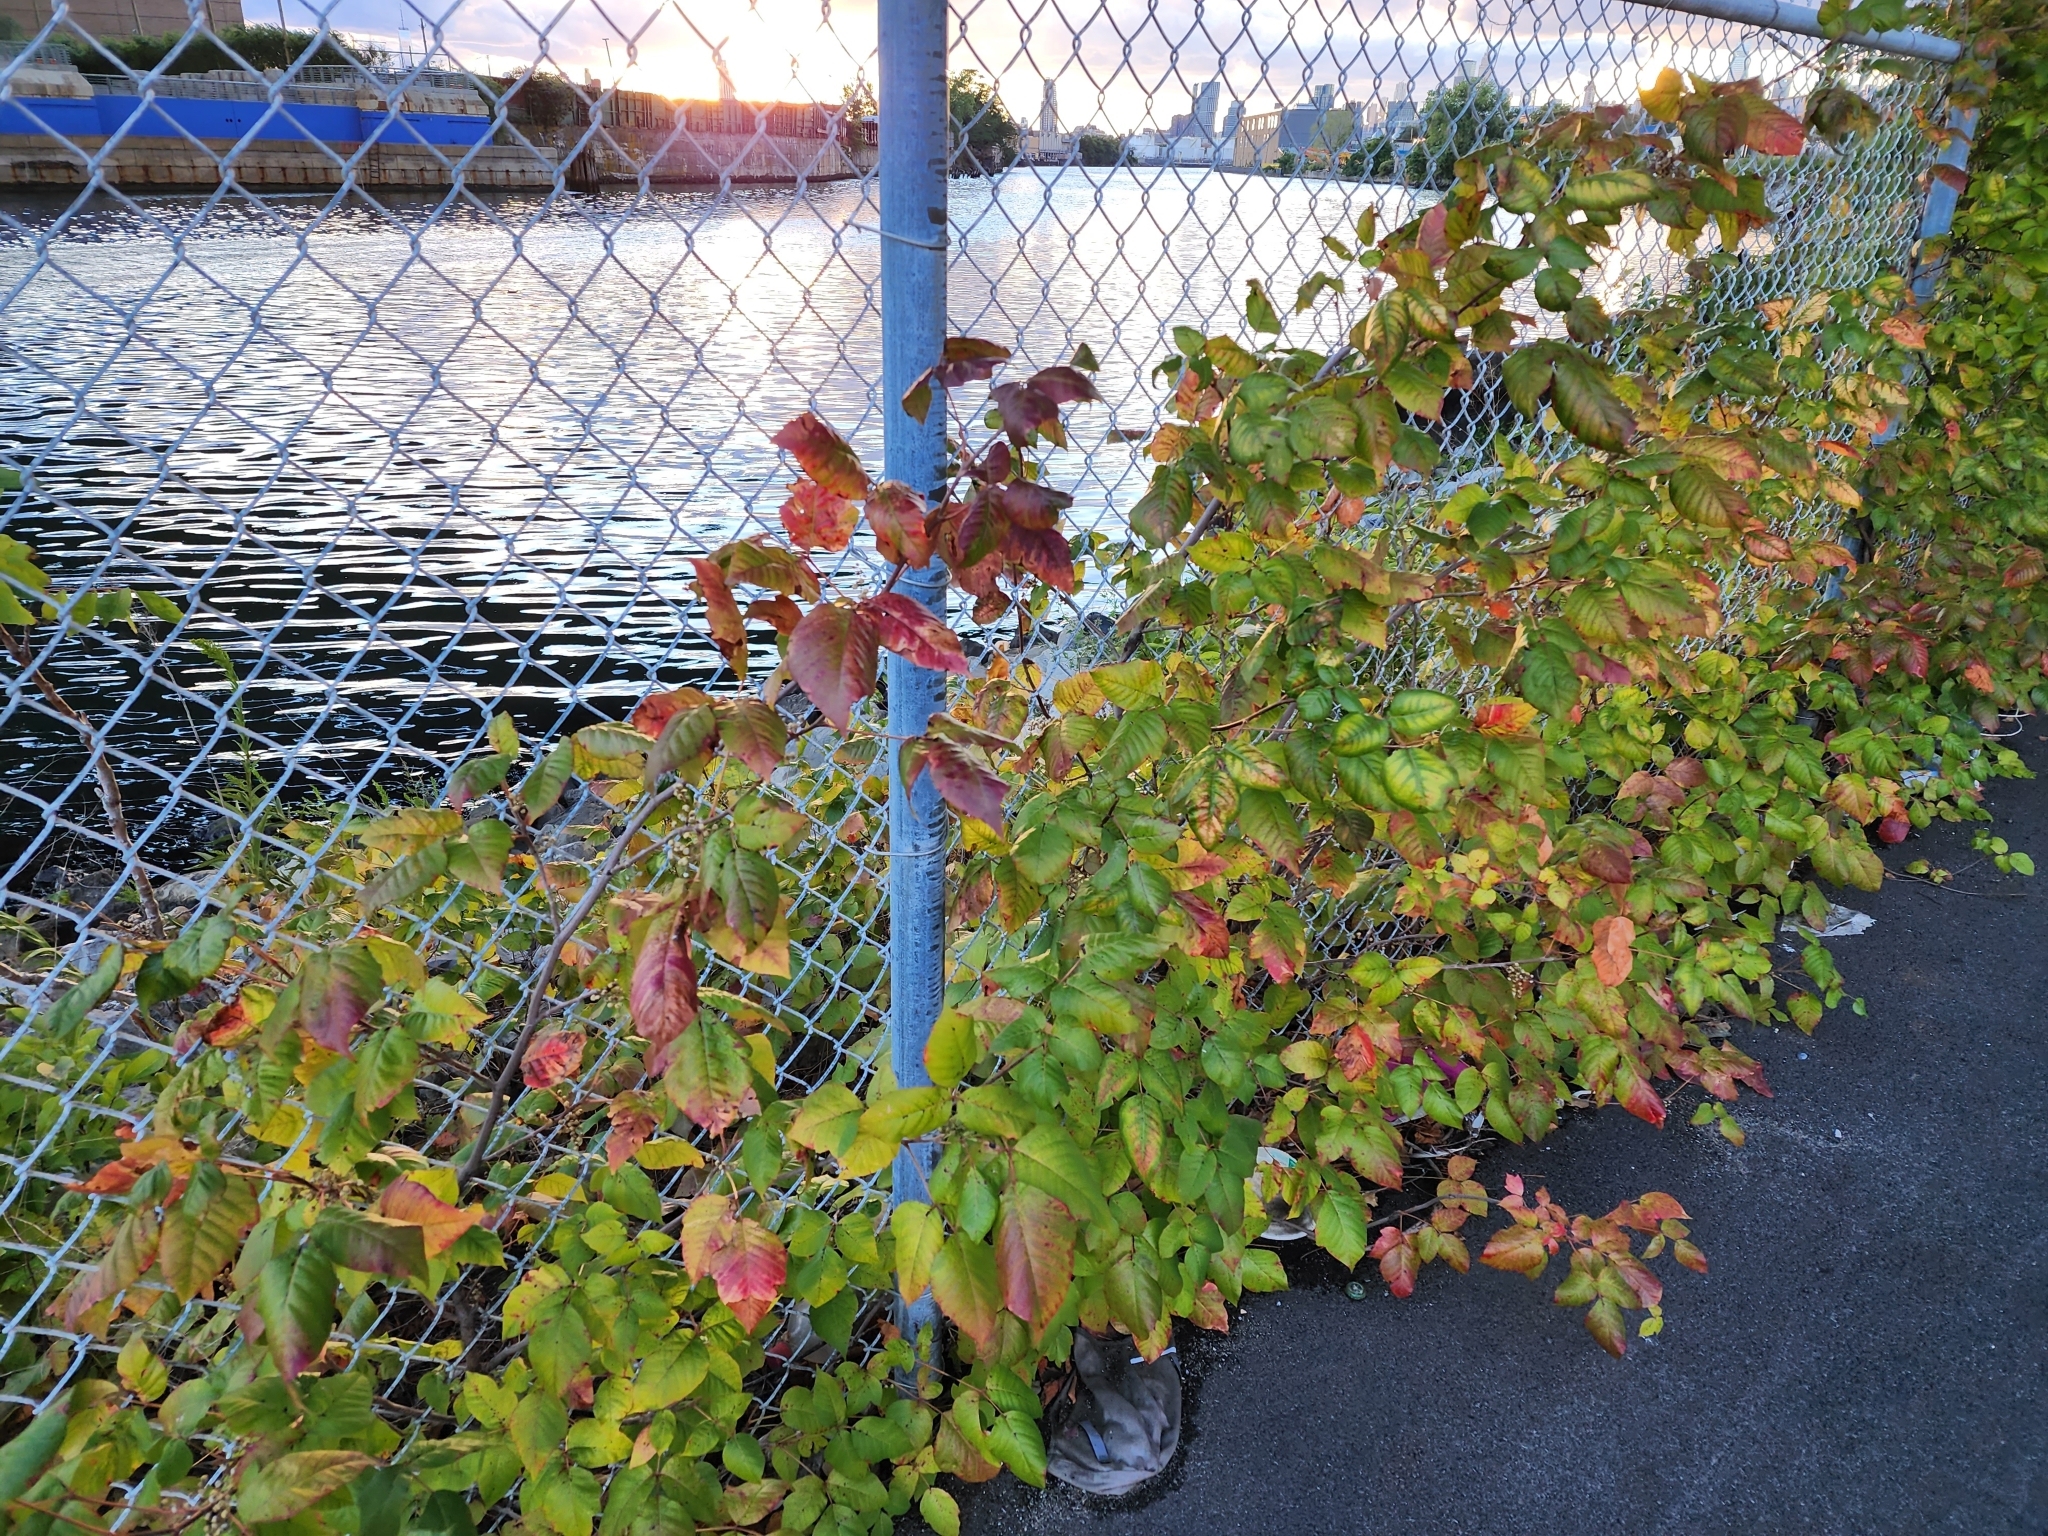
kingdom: Plantae
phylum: Tracheophyta
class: Magnoliopsida
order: Sapindales
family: Anacardiaceae
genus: Toxicodendron
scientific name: Toxicodendron radicans
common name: Poison ivy
